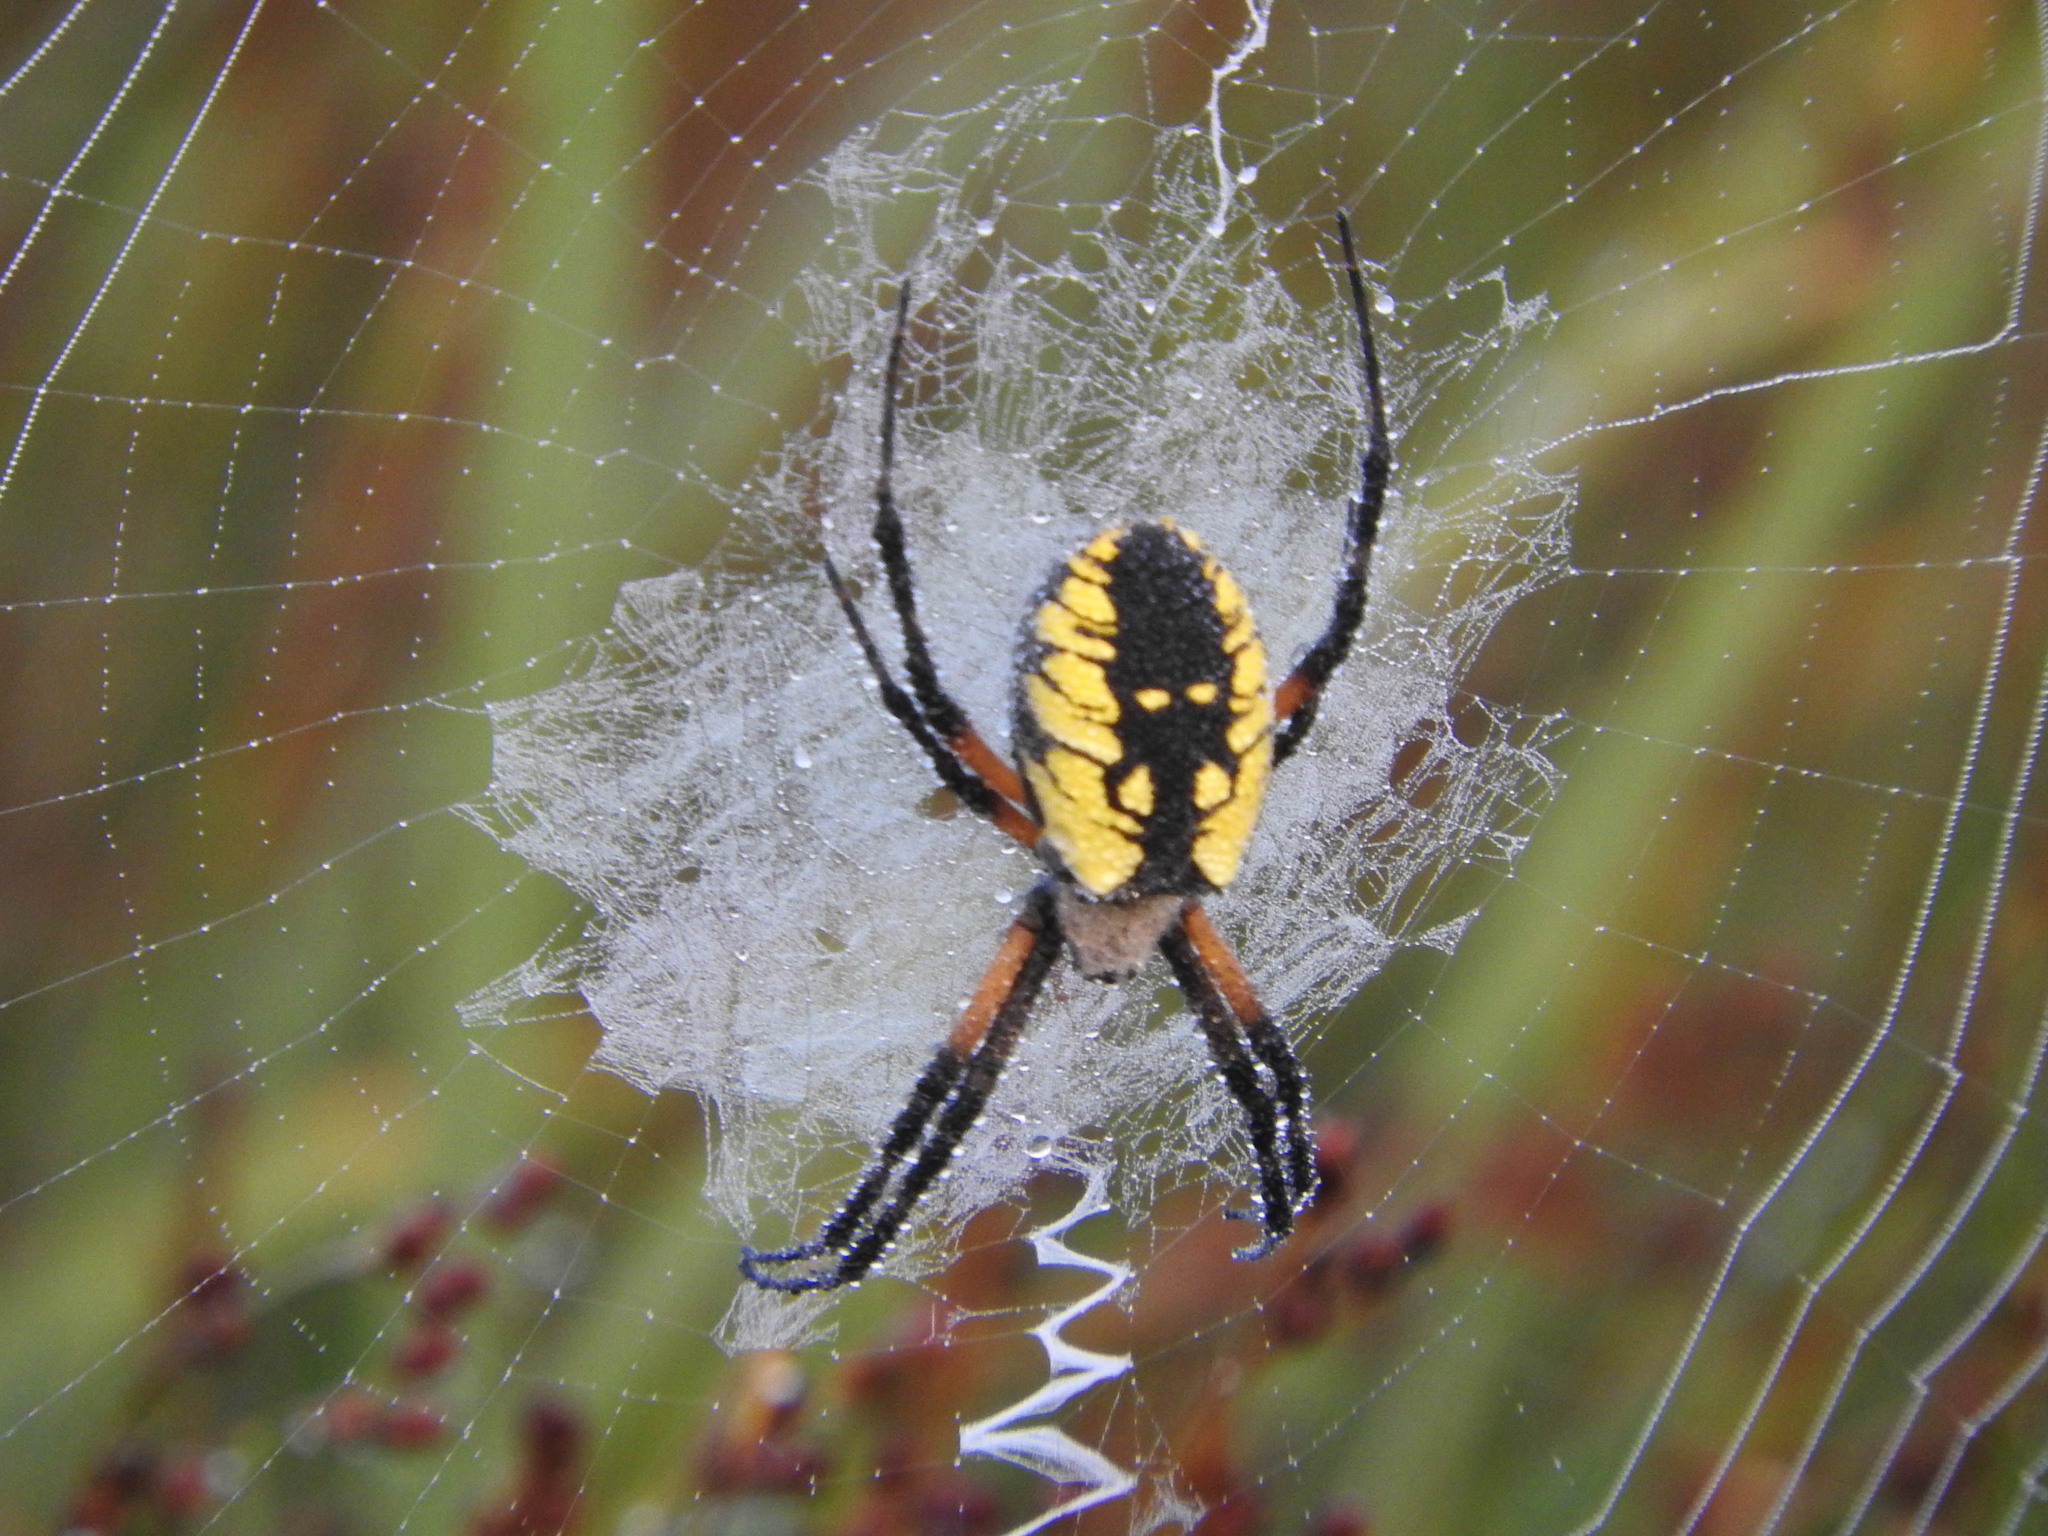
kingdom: Animalia
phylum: Arthropoda
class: Arachnida
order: Araneae
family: Araneidae
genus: Argiope
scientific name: Argiope aurantia
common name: Orb weavers
